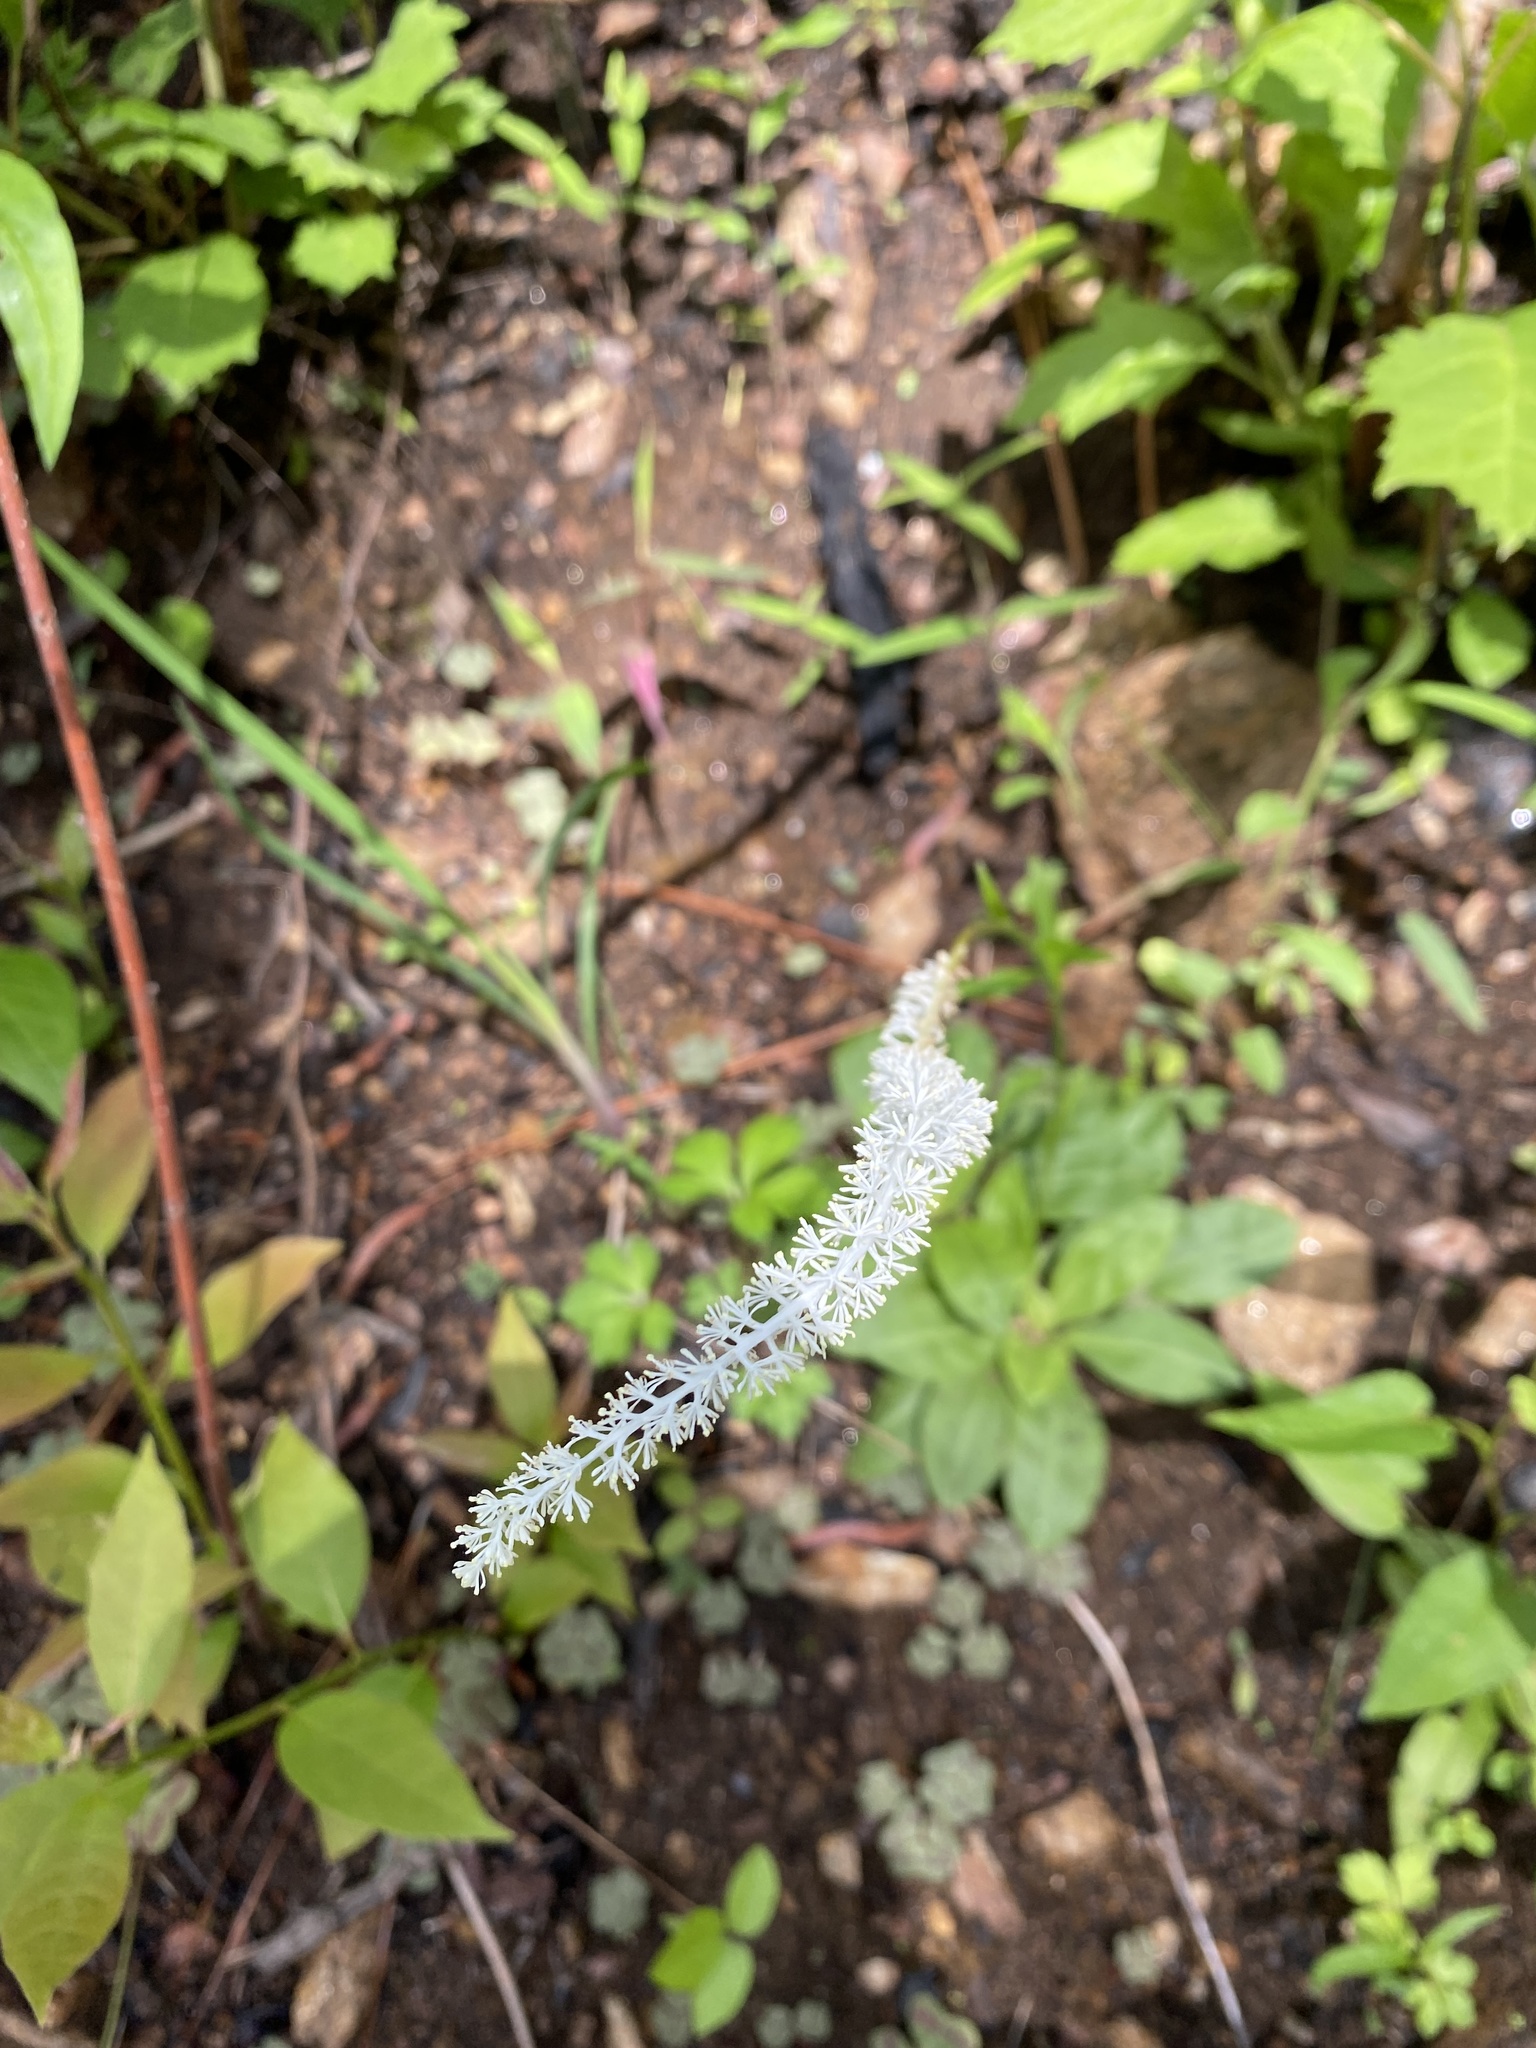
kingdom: Plantae
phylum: Tracheophyta
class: Liliopsida
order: Liliales
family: Melanthiaceae
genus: Chamaelirium
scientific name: Chamaelirium luteum
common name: Fairy-wand
